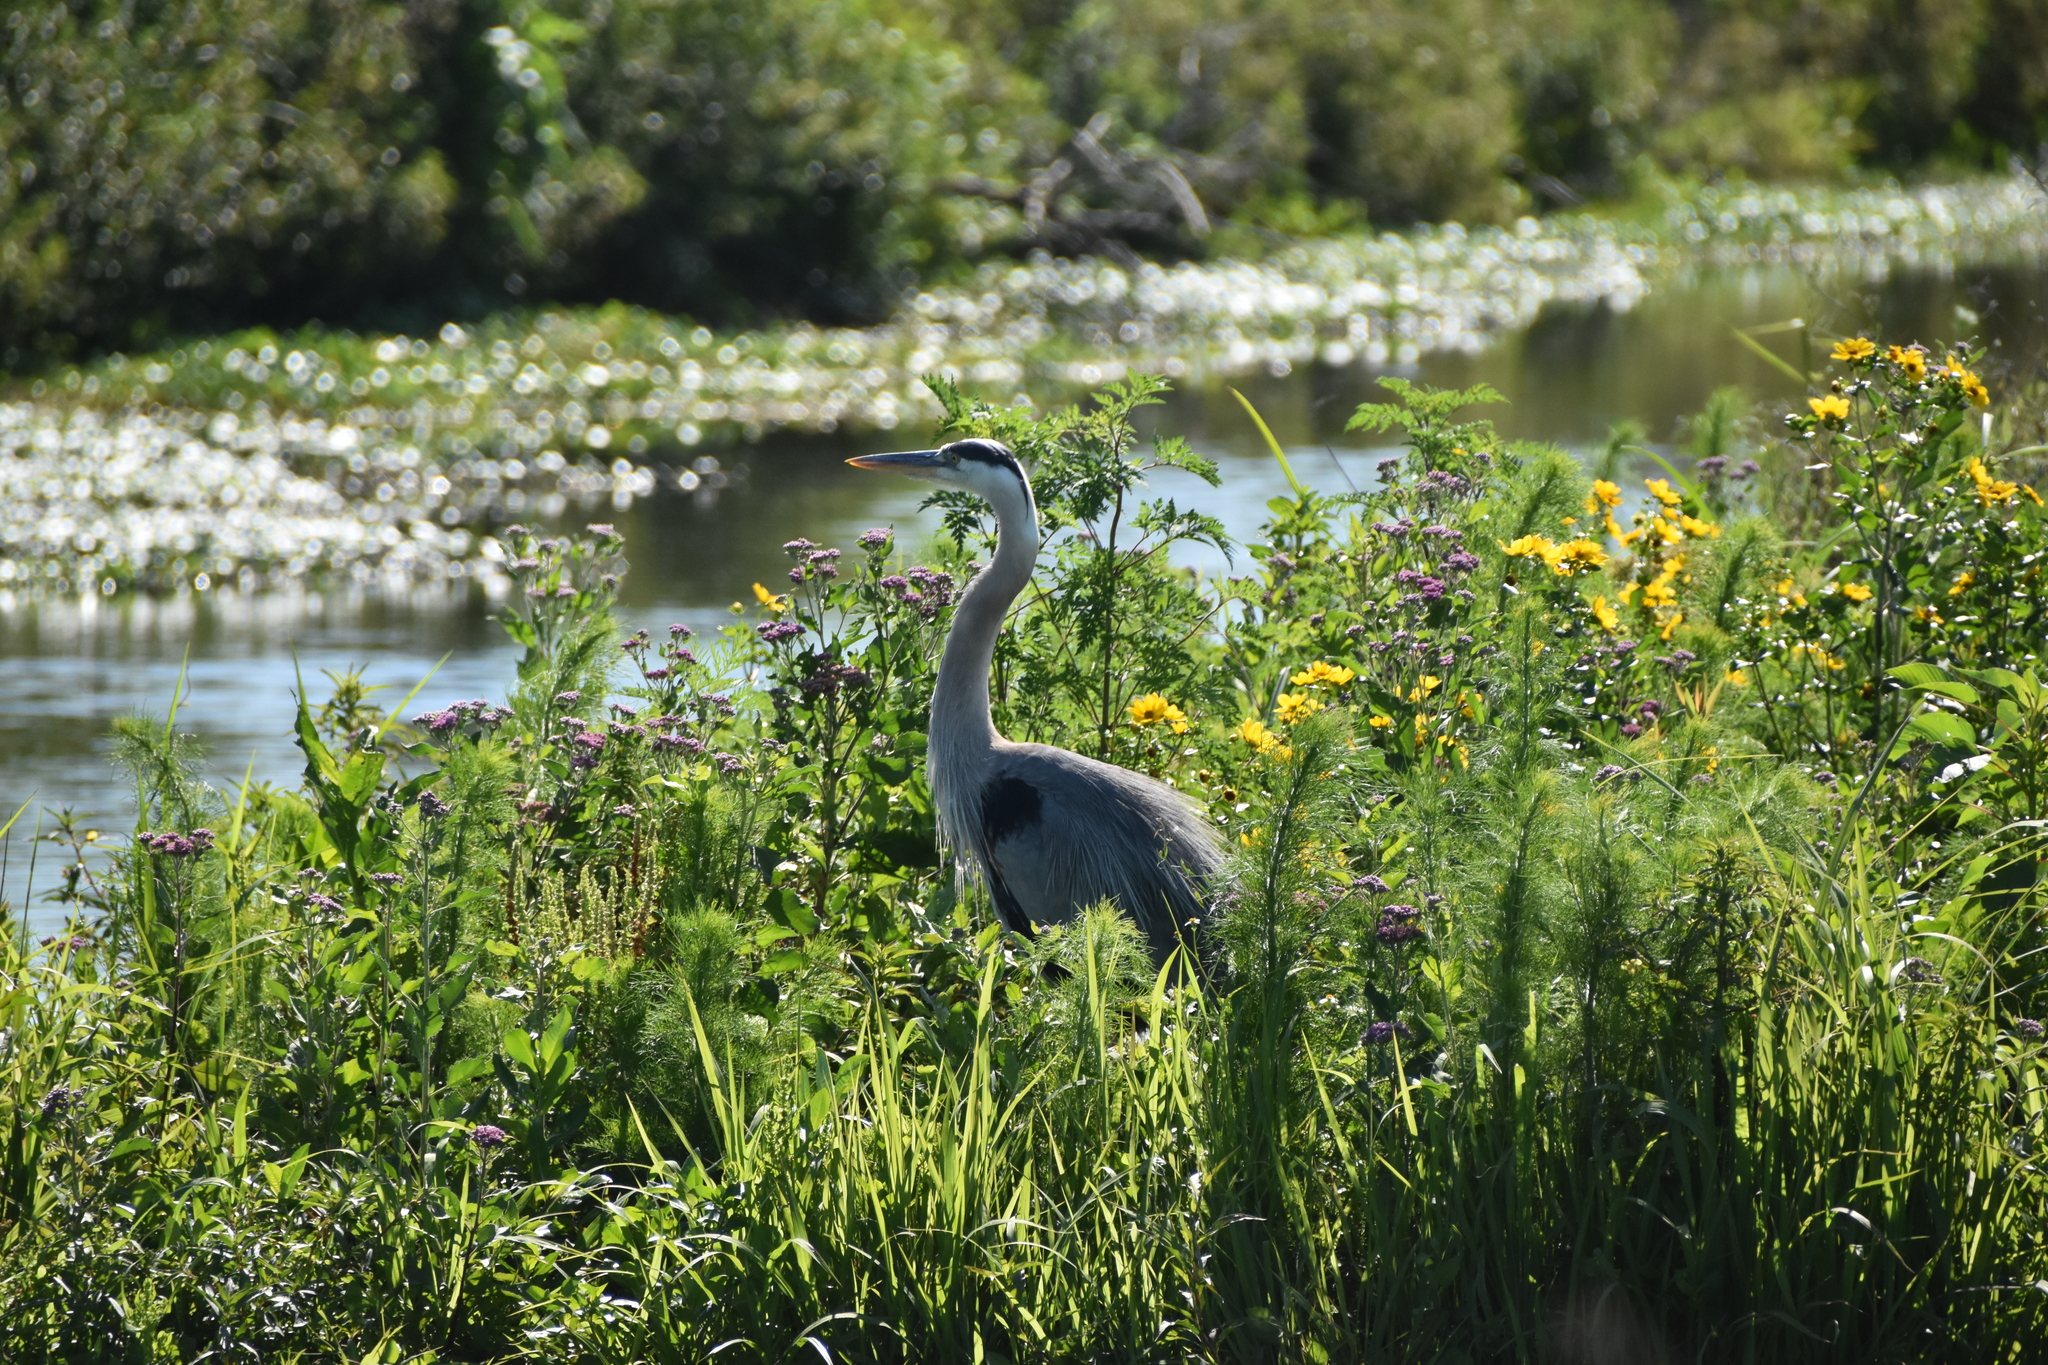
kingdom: Animalia
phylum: Chordata
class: Aves
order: Pelecaniformes
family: Ardeidae
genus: Ardea
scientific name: Ardea herodias
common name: Great blue heron
